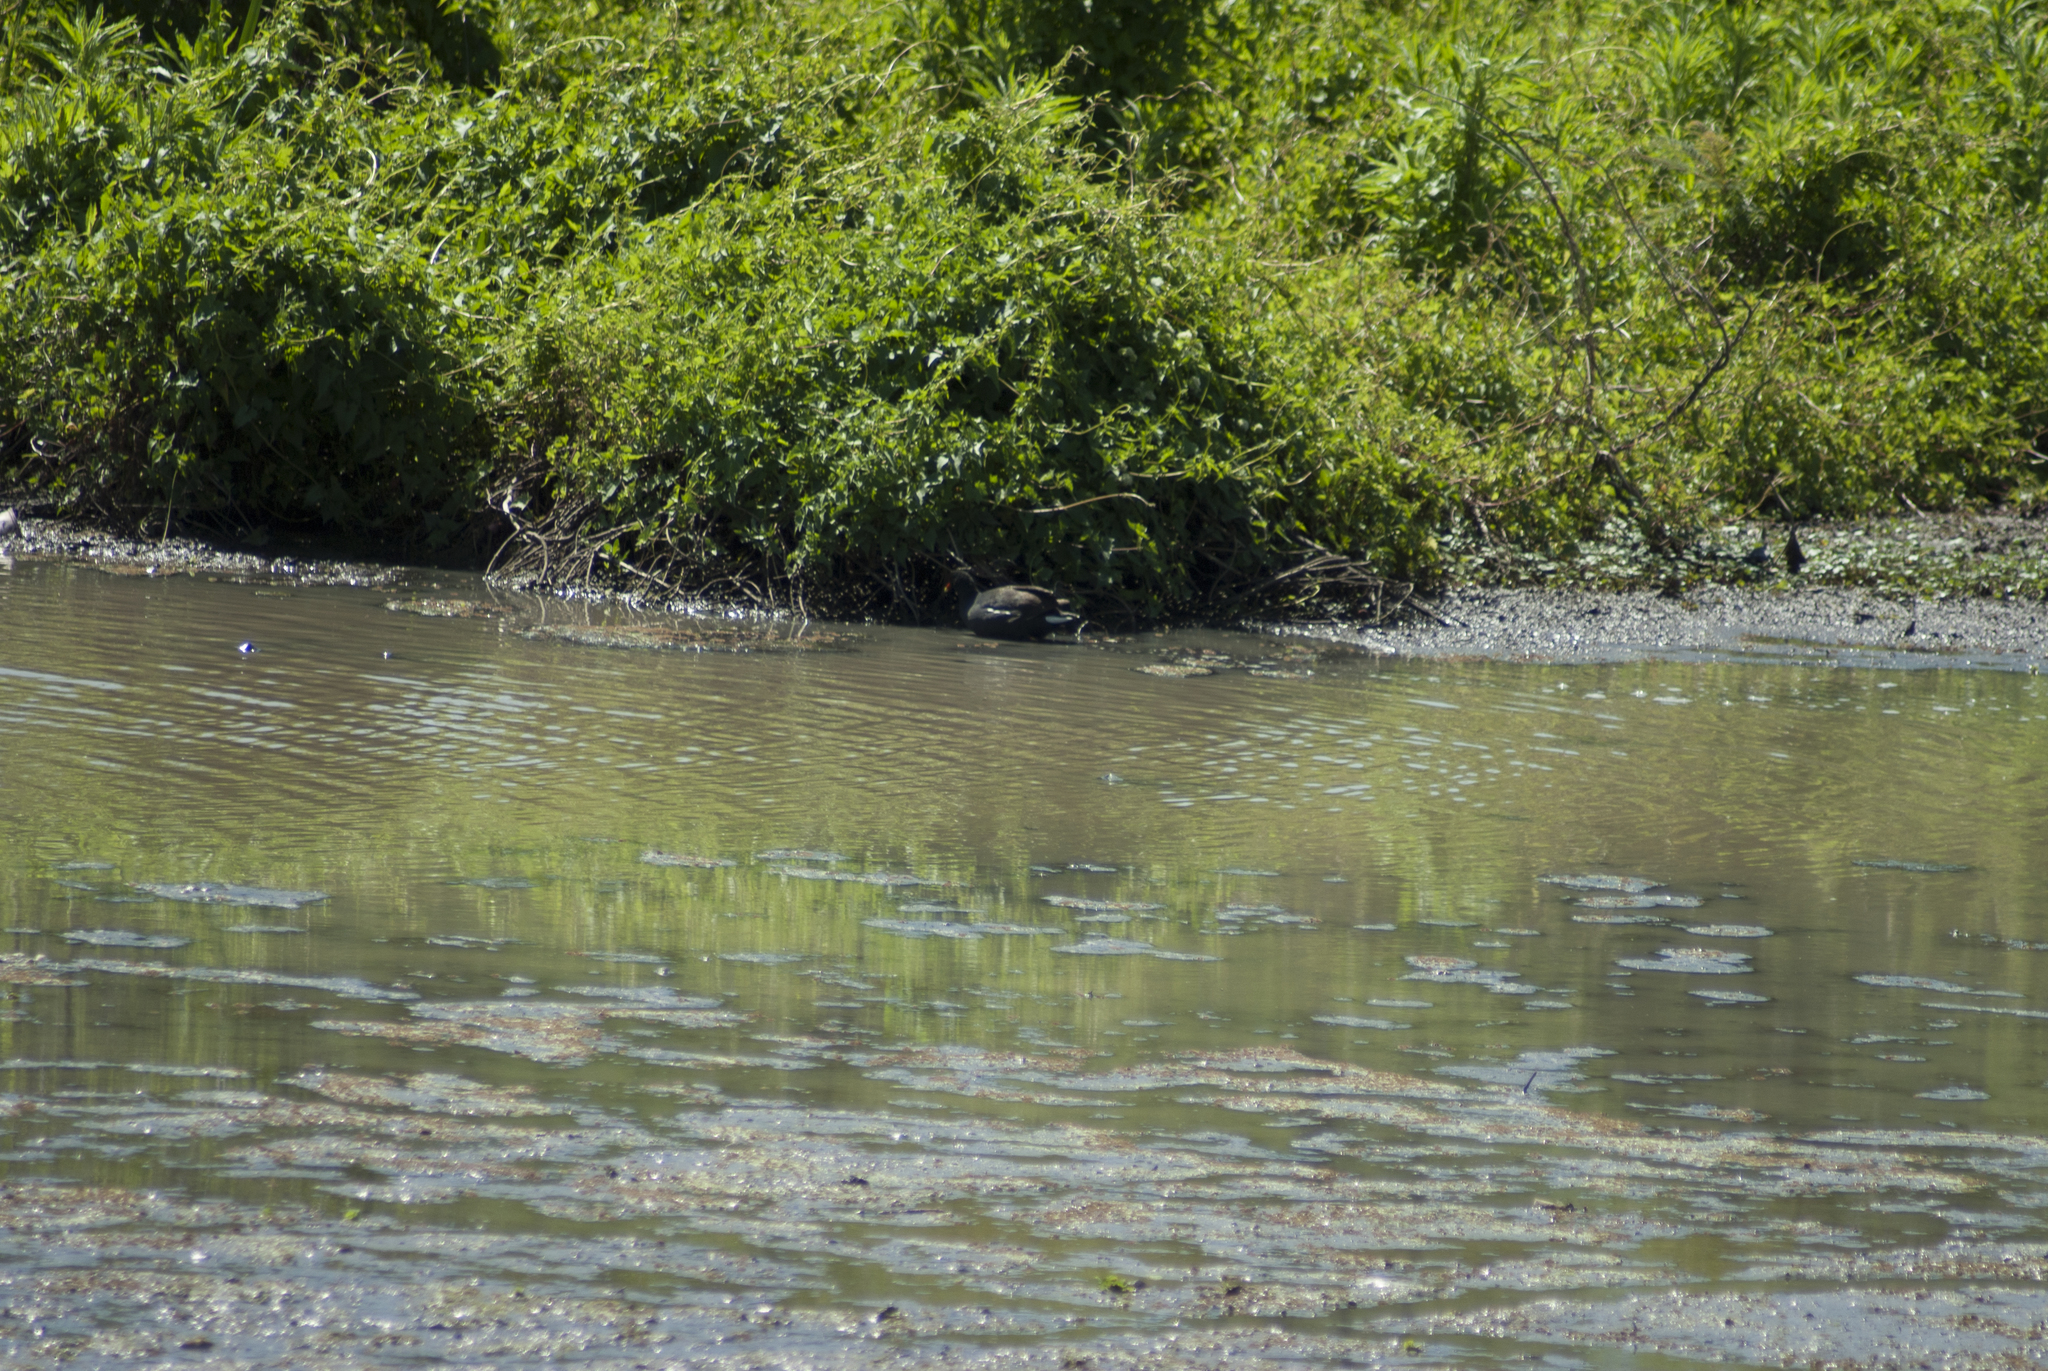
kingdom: Animalia
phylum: Chordata
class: Aves
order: Gruiformes
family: Rallidae
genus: Gallinula
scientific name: Gallinula chloropus
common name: Common moorhen
